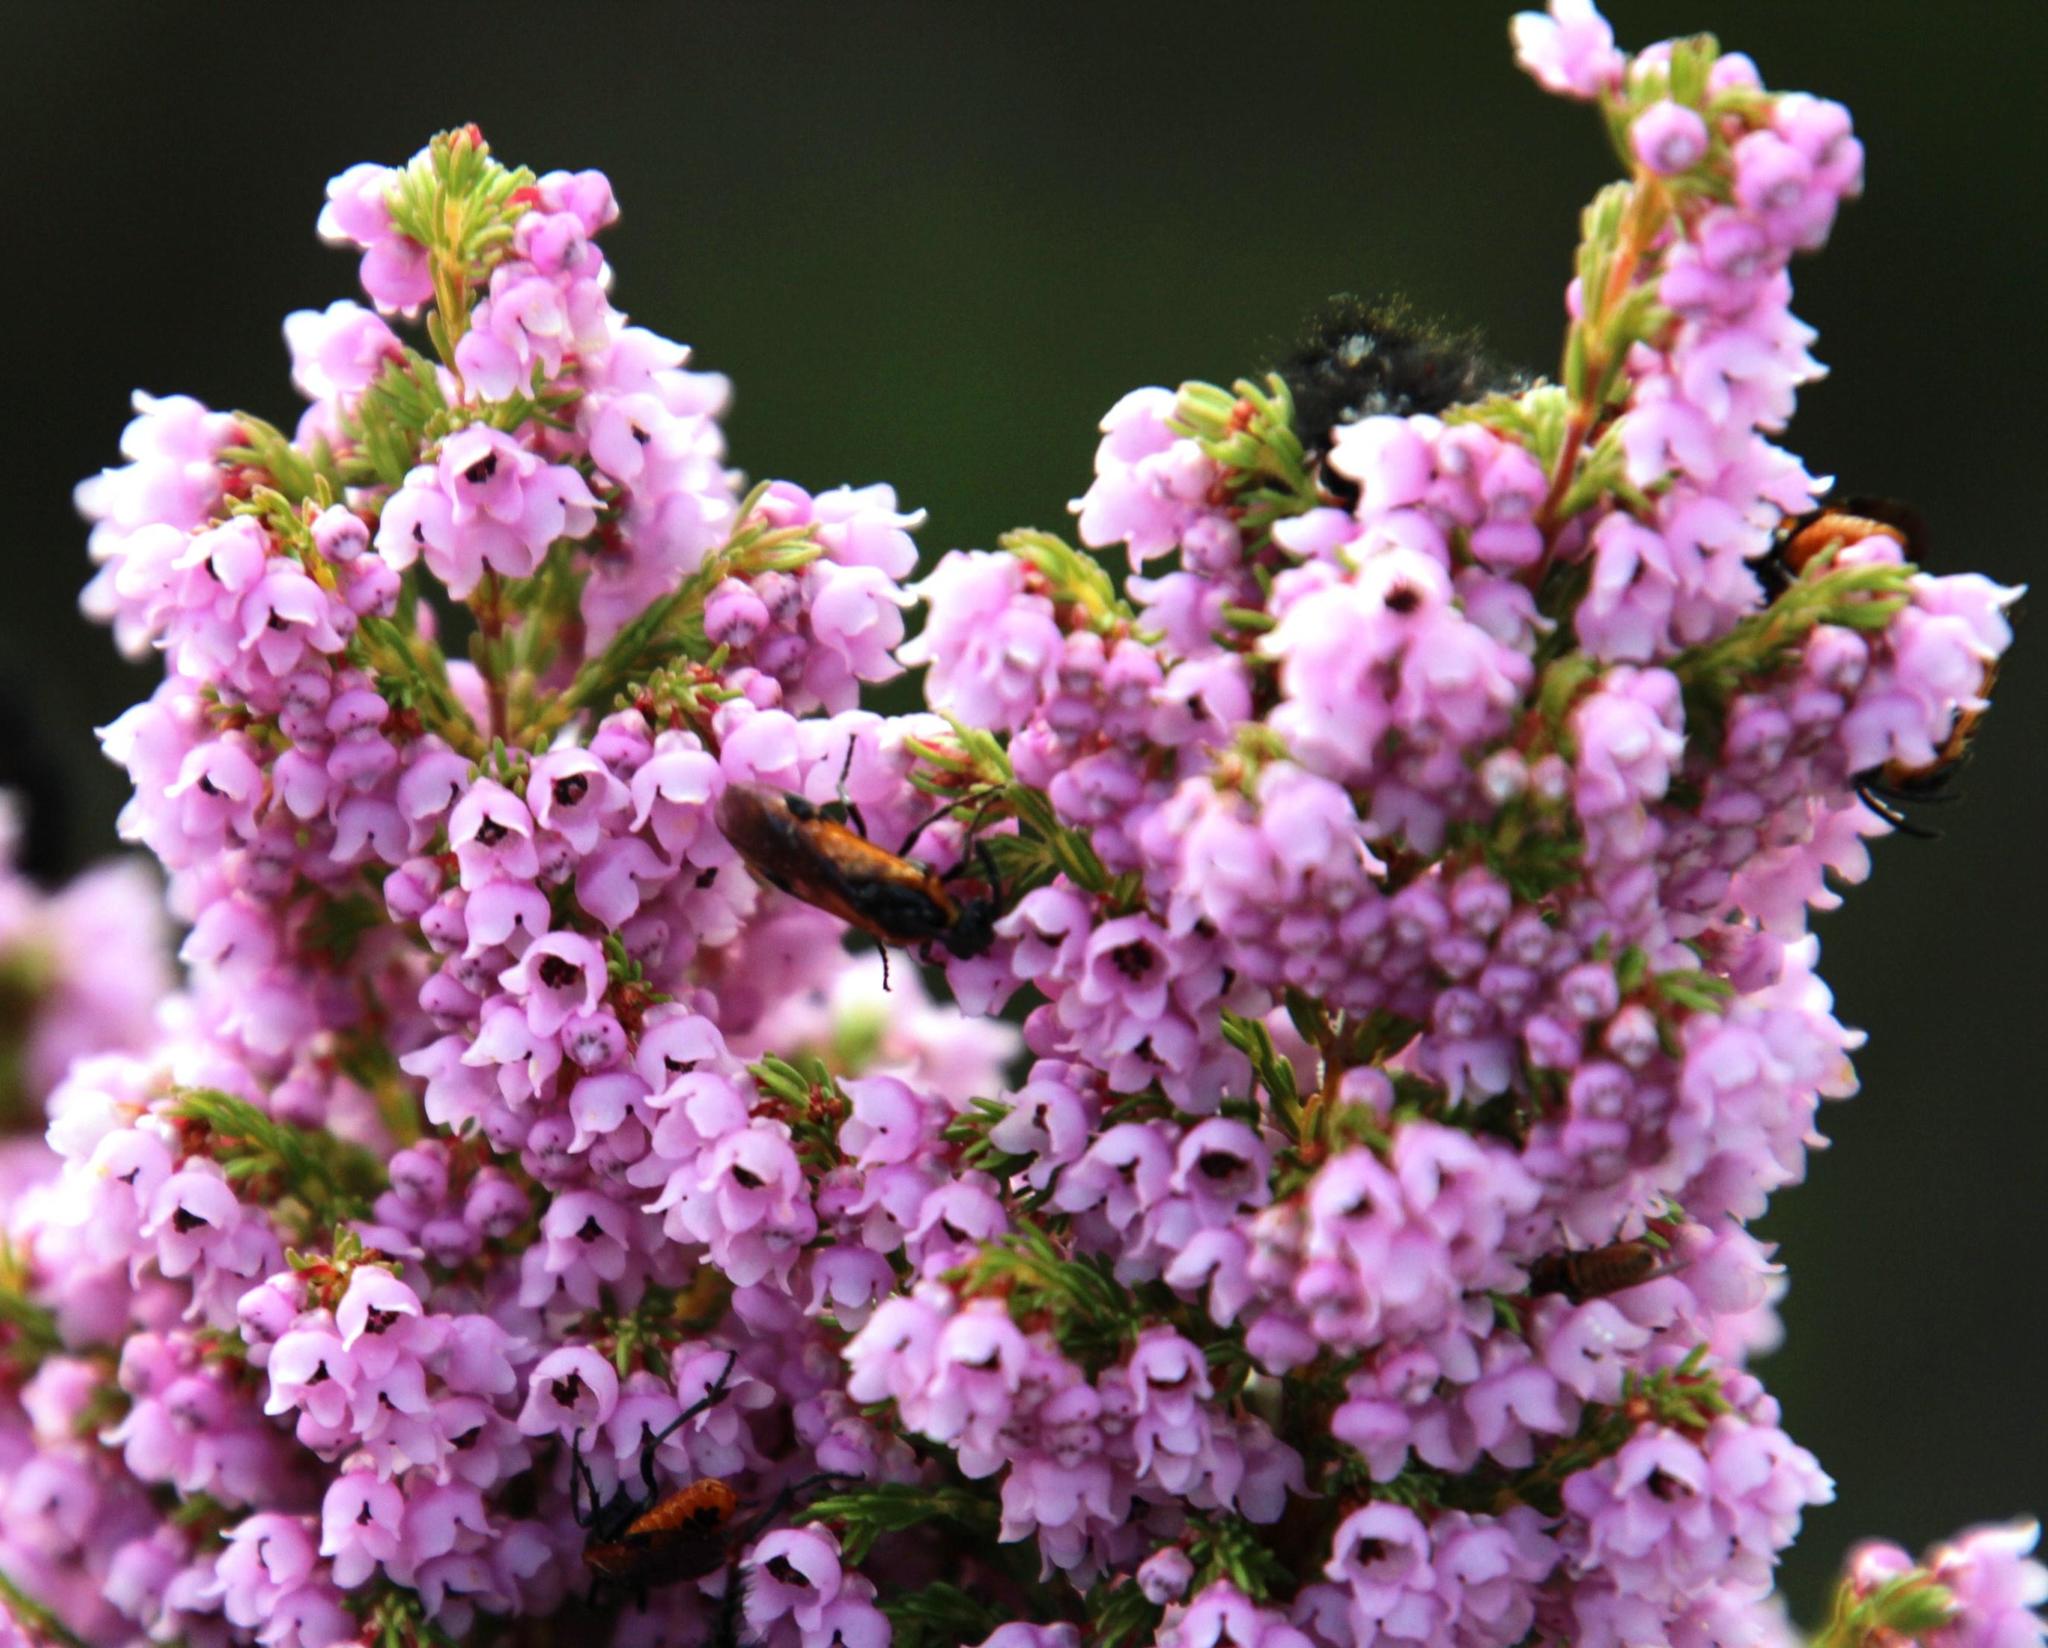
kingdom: Plantae
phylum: Tracheophyta
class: Magnoliopsida
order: Ericales
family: Ericaceae
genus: Erica
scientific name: Erica mauritanica
